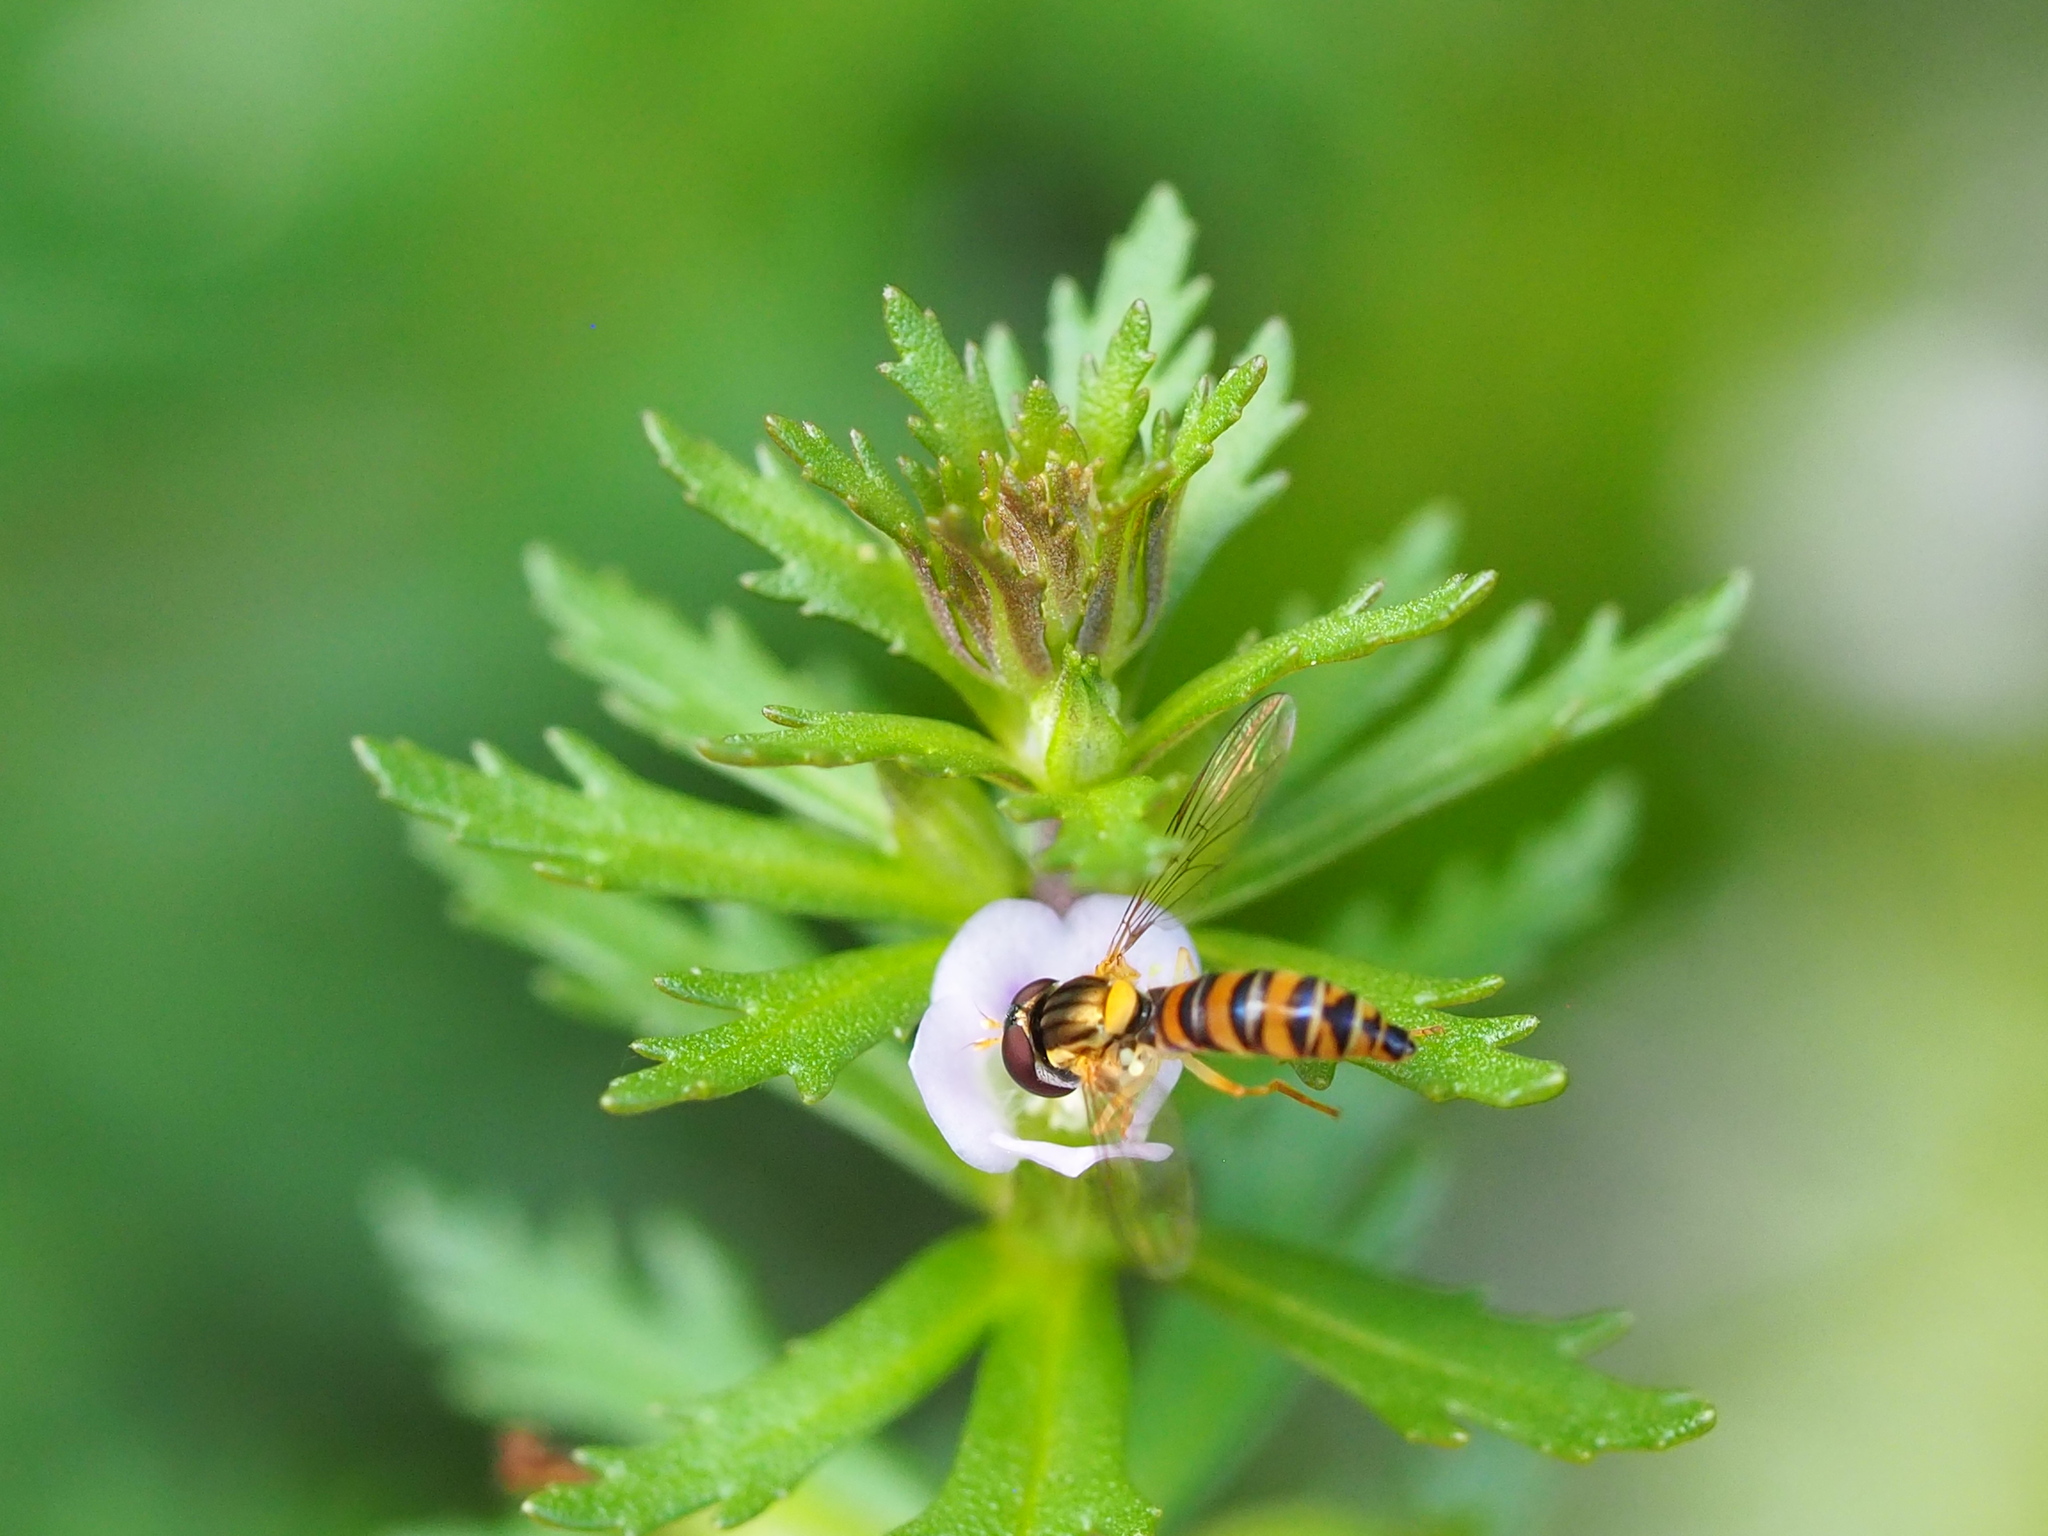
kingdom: Animalia
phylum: Arthropoda
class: Insecta
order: Diptera
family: Syrphidae
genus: Sphaerophoria
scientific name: Sphaerophoria vockerothi
